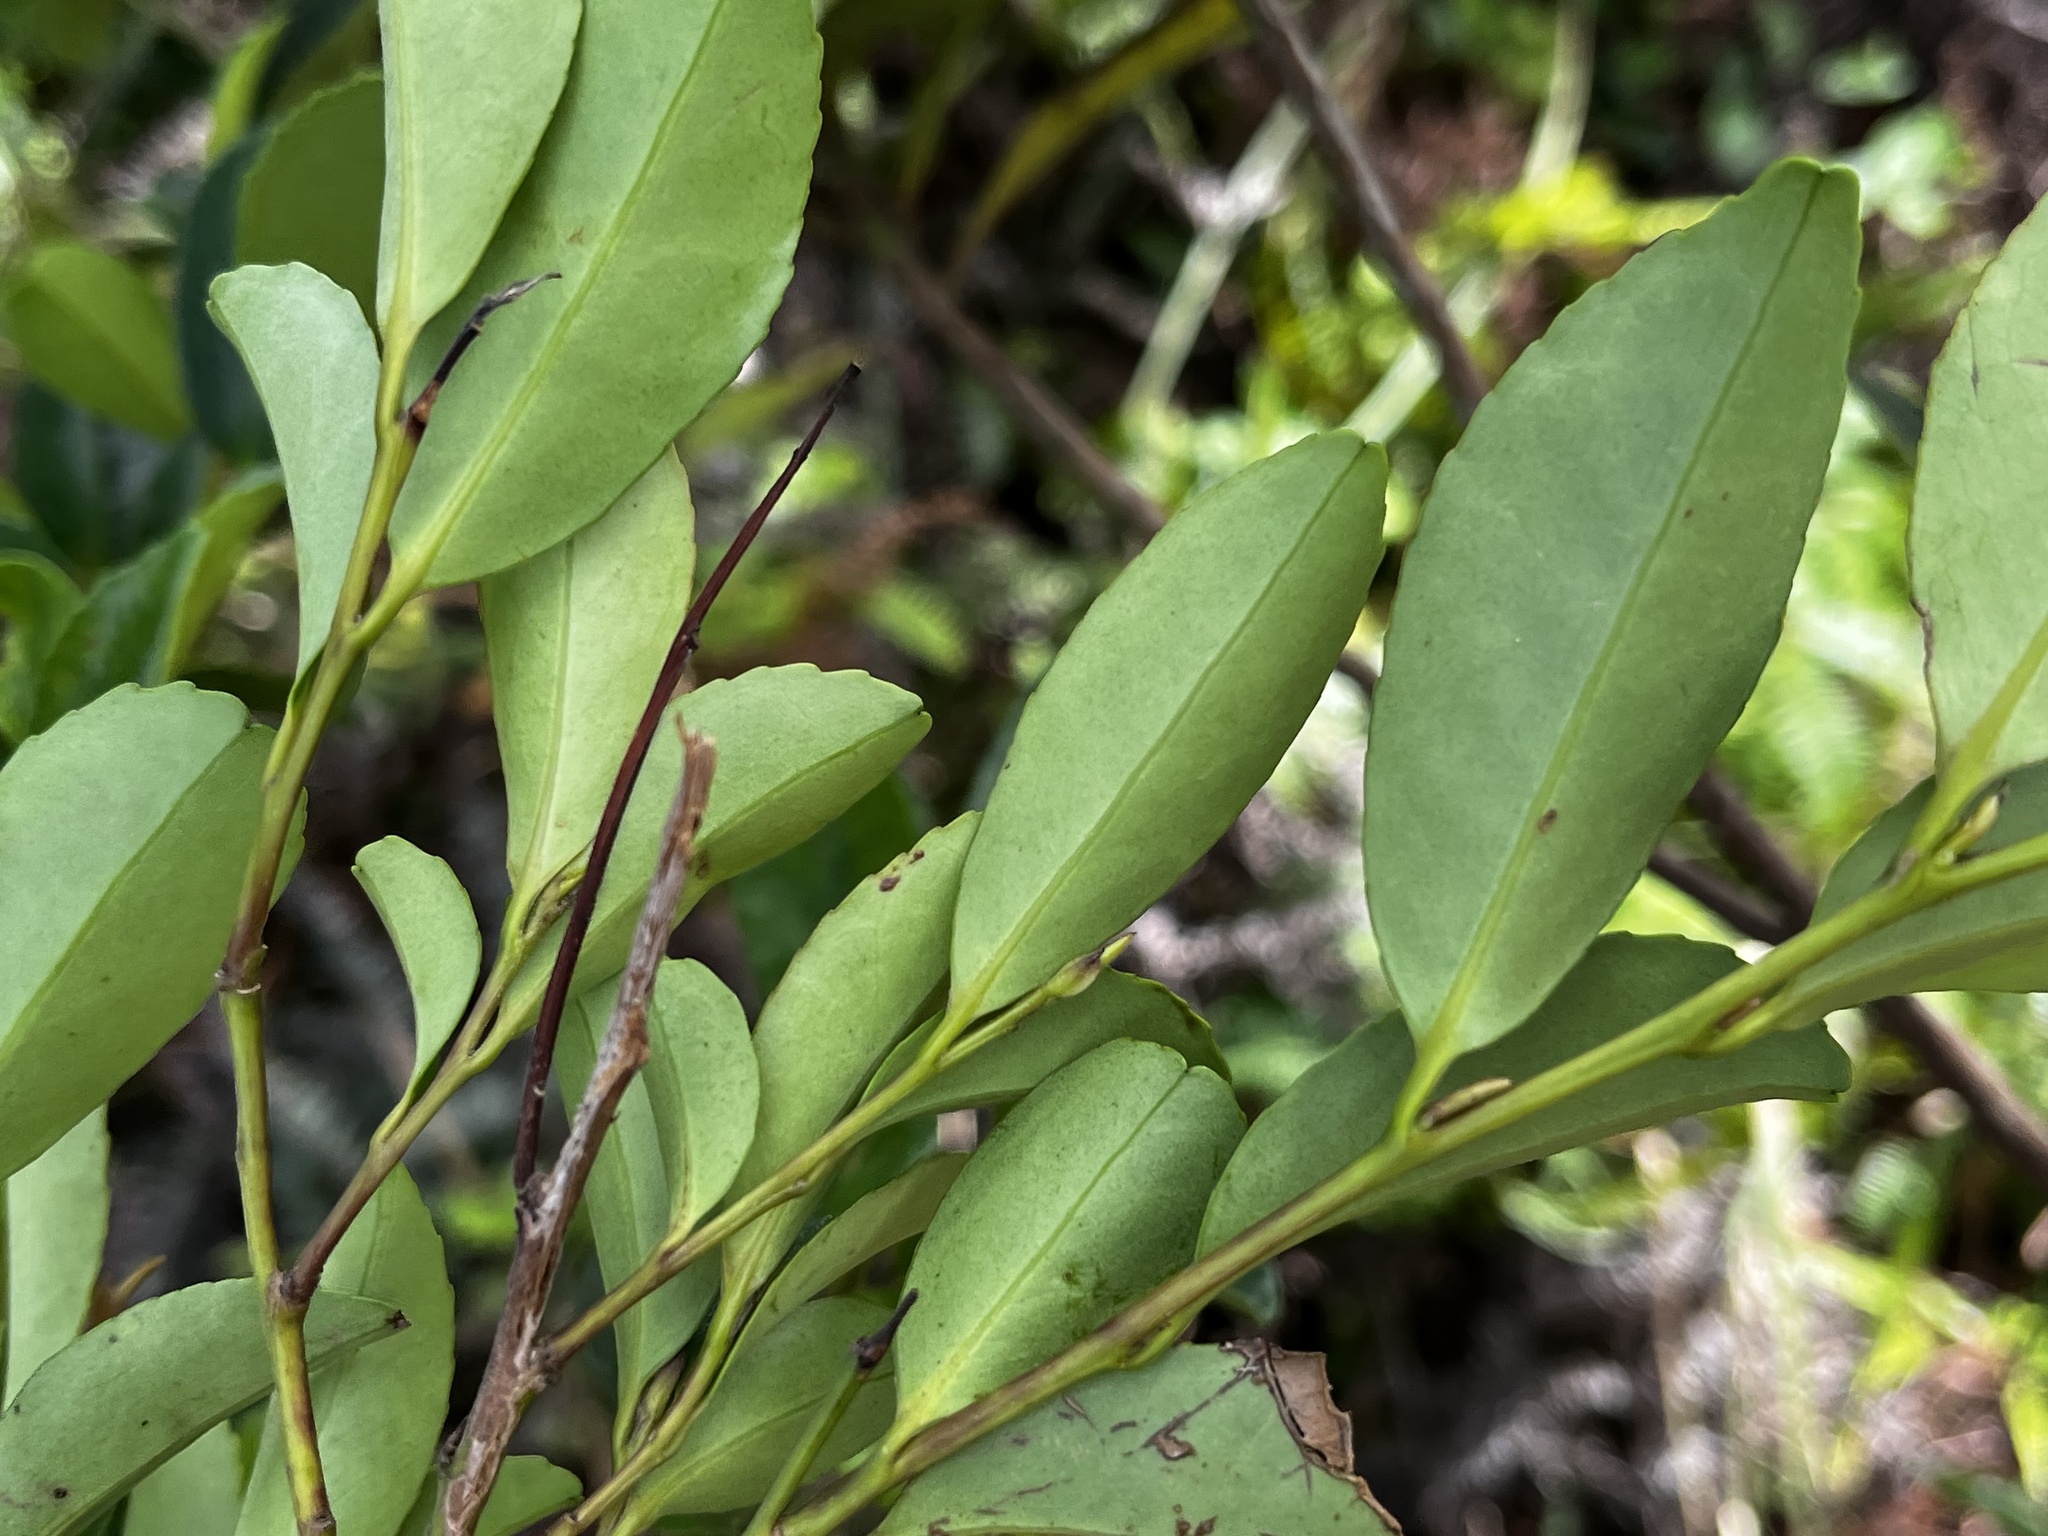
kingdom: Plantae
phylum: Tracheophyta
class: Magnoliopsida
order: Aquifoliales
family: Aquifoliaceae
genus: Ilex
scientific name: Ilex maximowicziana
